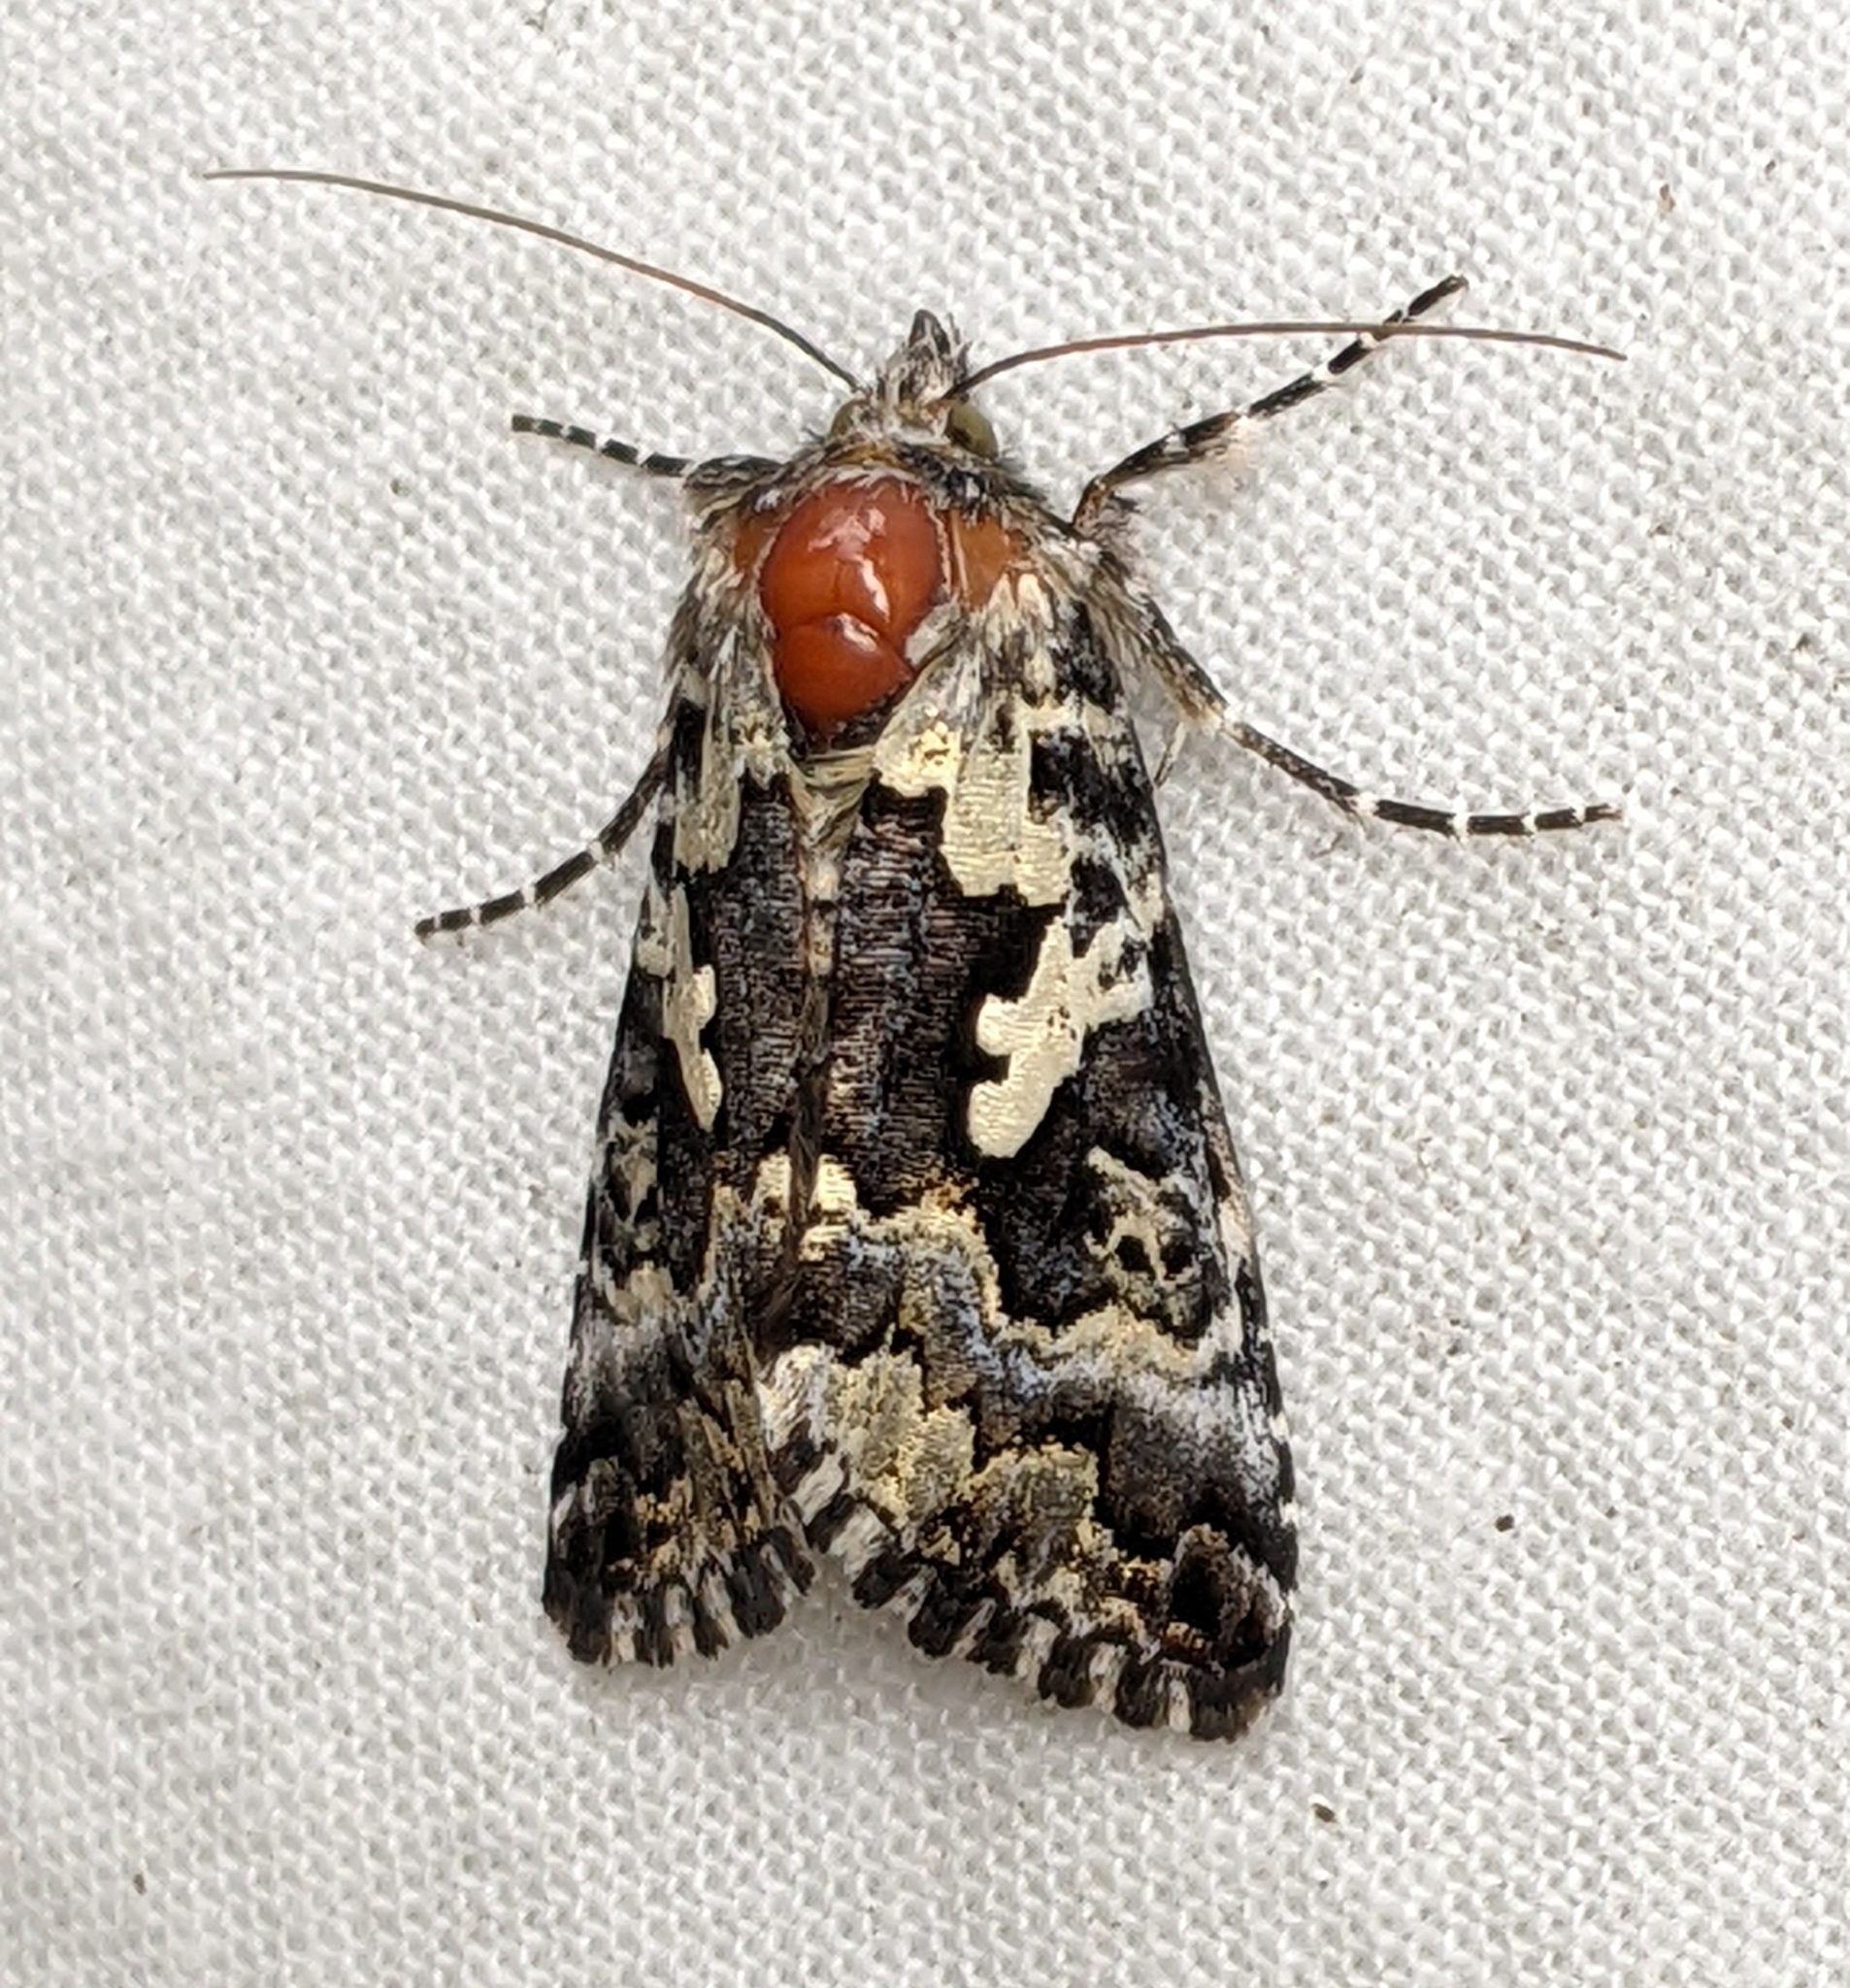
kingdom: Animalia
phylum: Arthropoda
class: Insecta
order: Lepidoptera
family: Noctuidae
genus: Syngrapha
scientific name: Syngrapha rectangula
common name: Angulated cutworm
